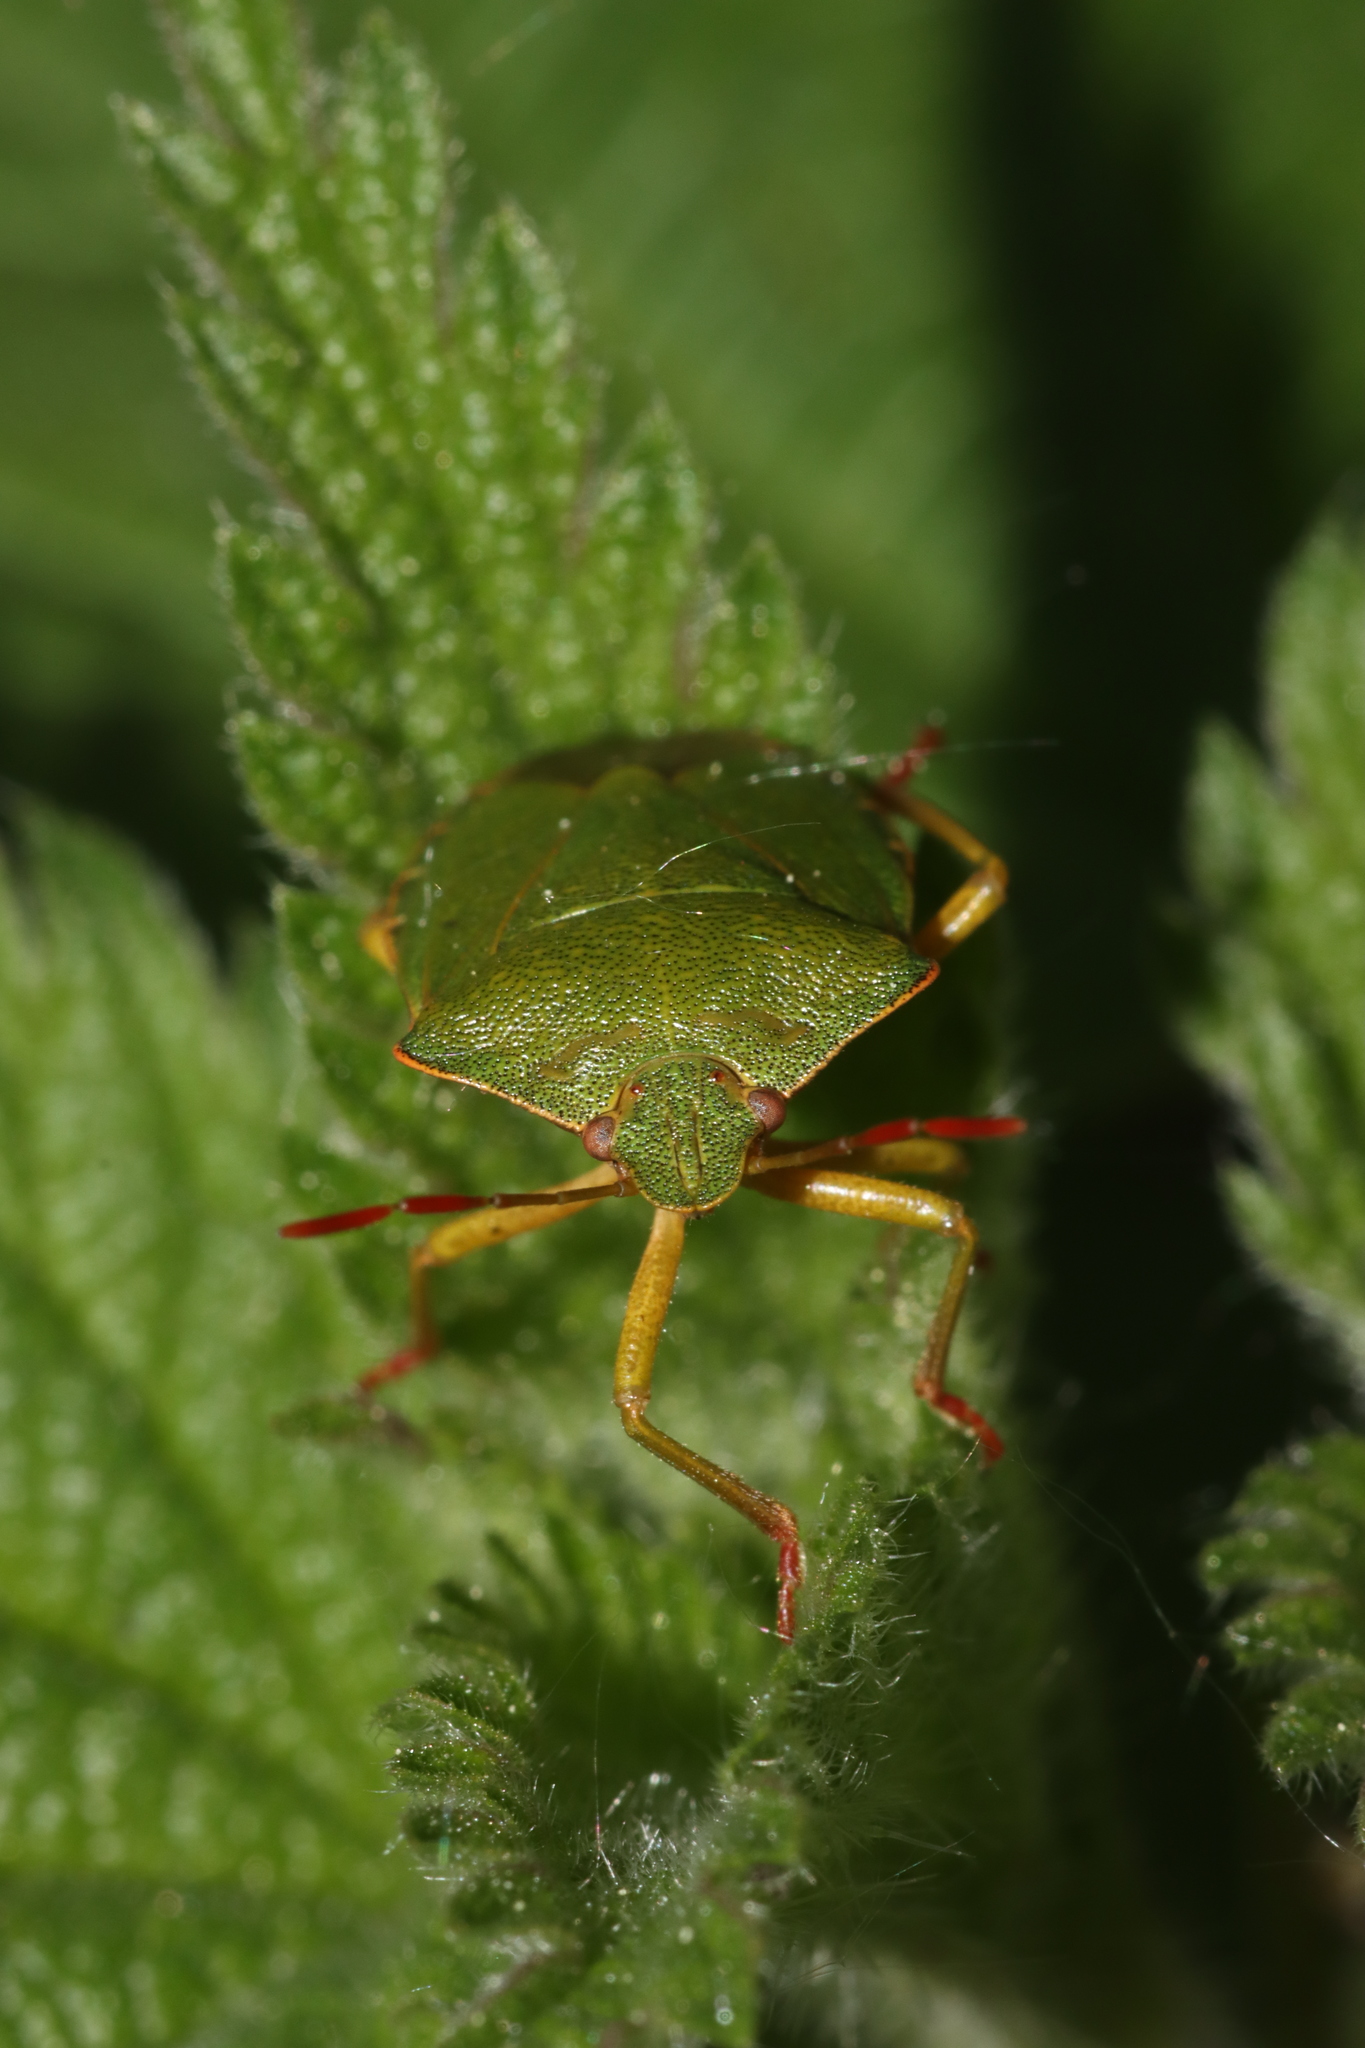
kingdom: Animalia
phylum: Arthropoda
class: Insecta
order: Hemiptera
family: Pentatomidae
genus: Palomena
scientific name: Palomena prasina
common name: Green shieldbug
